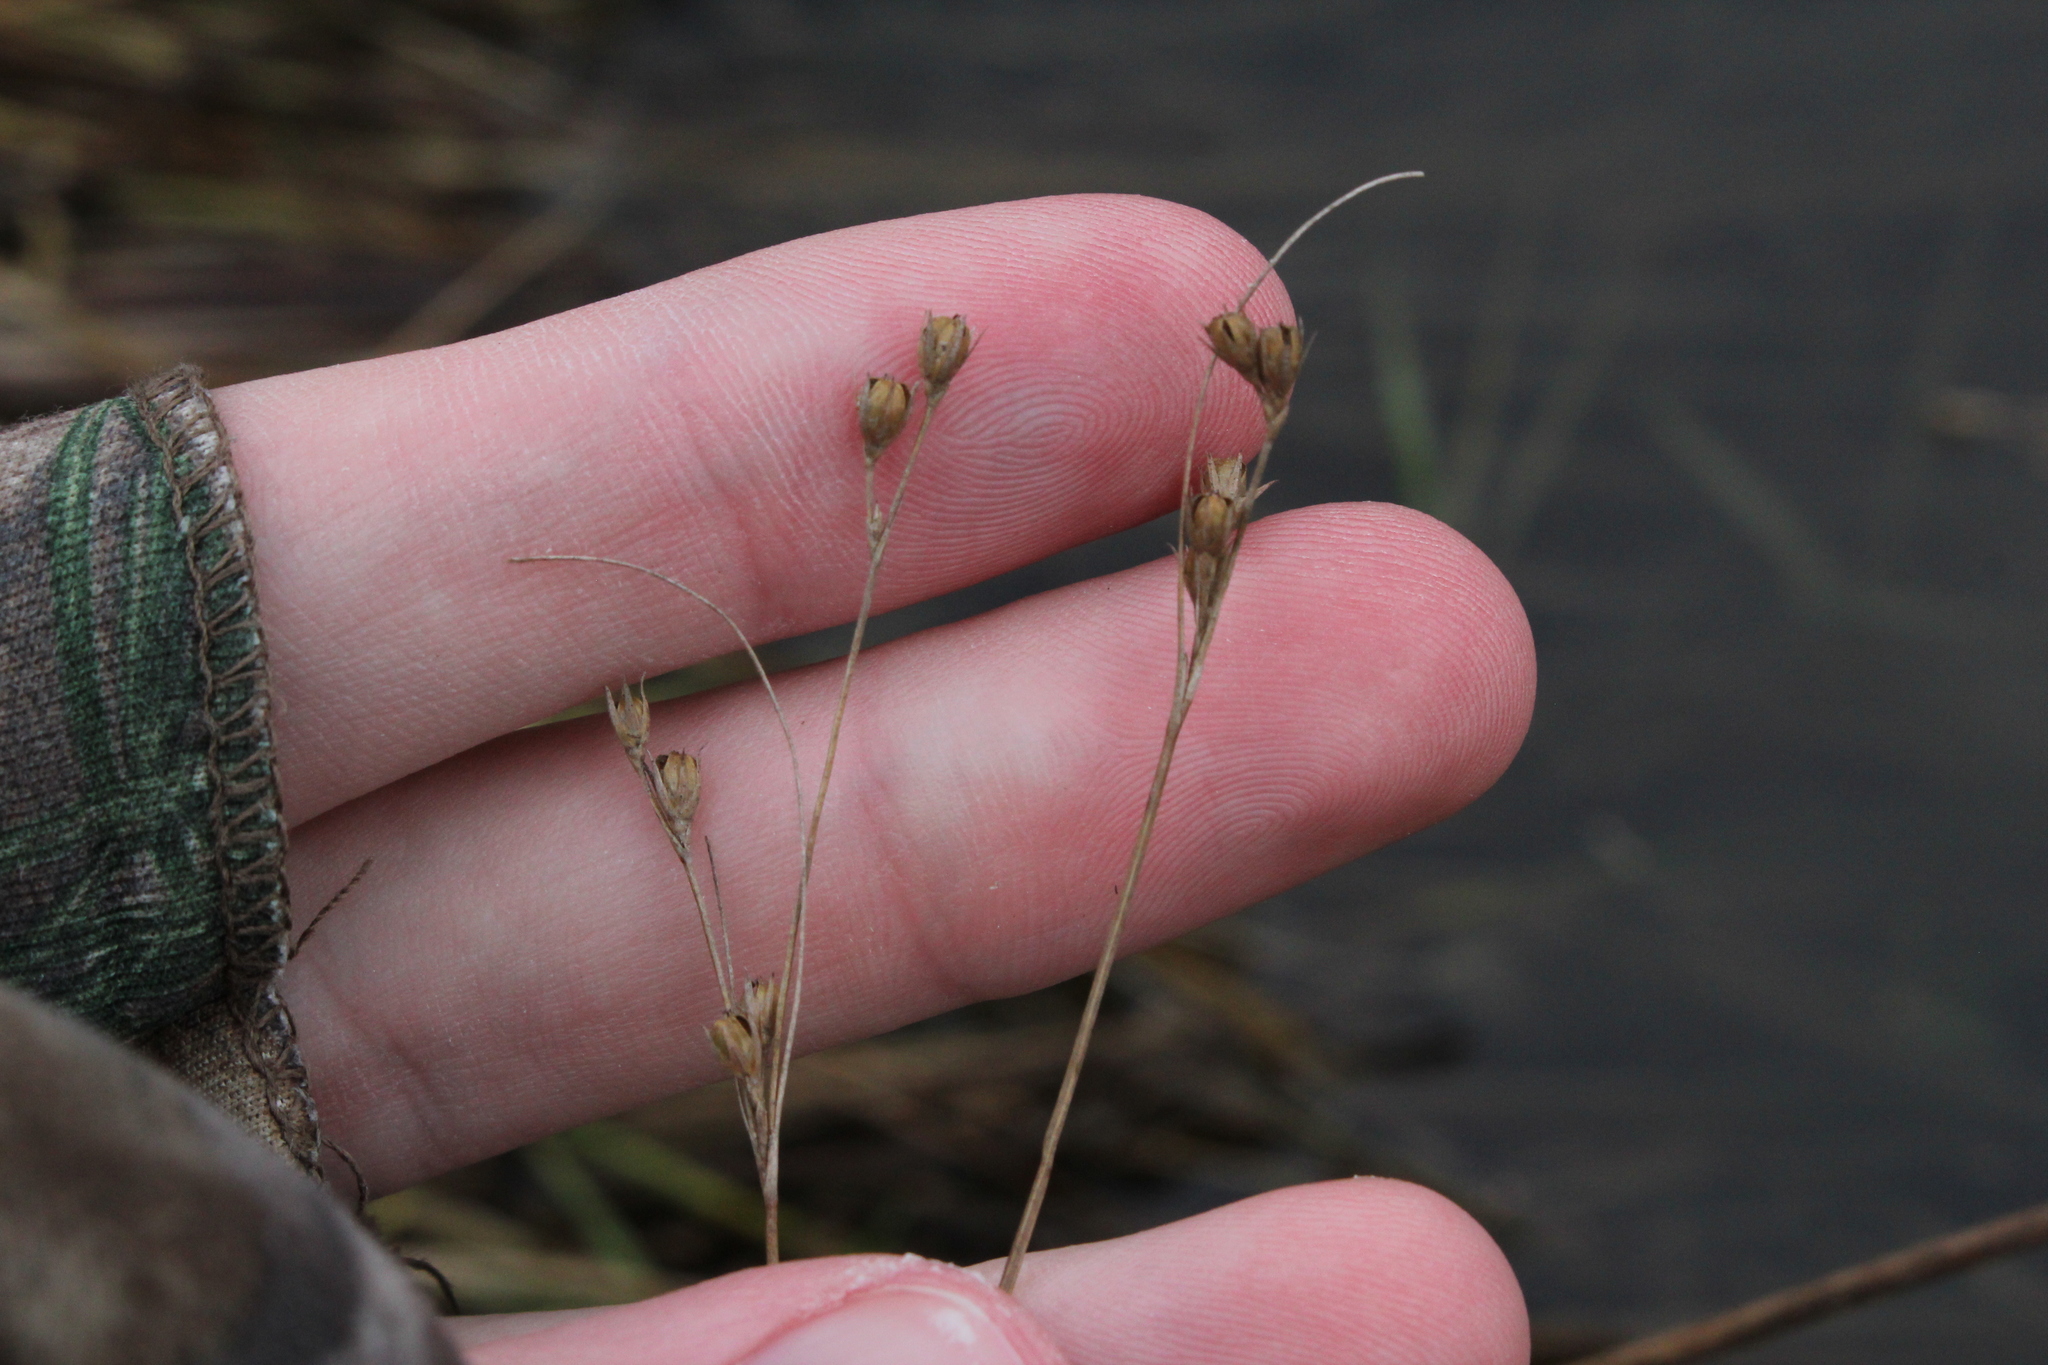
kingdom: Plantae
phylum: Tracheophyta
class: Liliopsida
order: Poales
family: Juncaceae
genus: Juncus
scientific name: Juncus tenuis
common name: Slender rush
